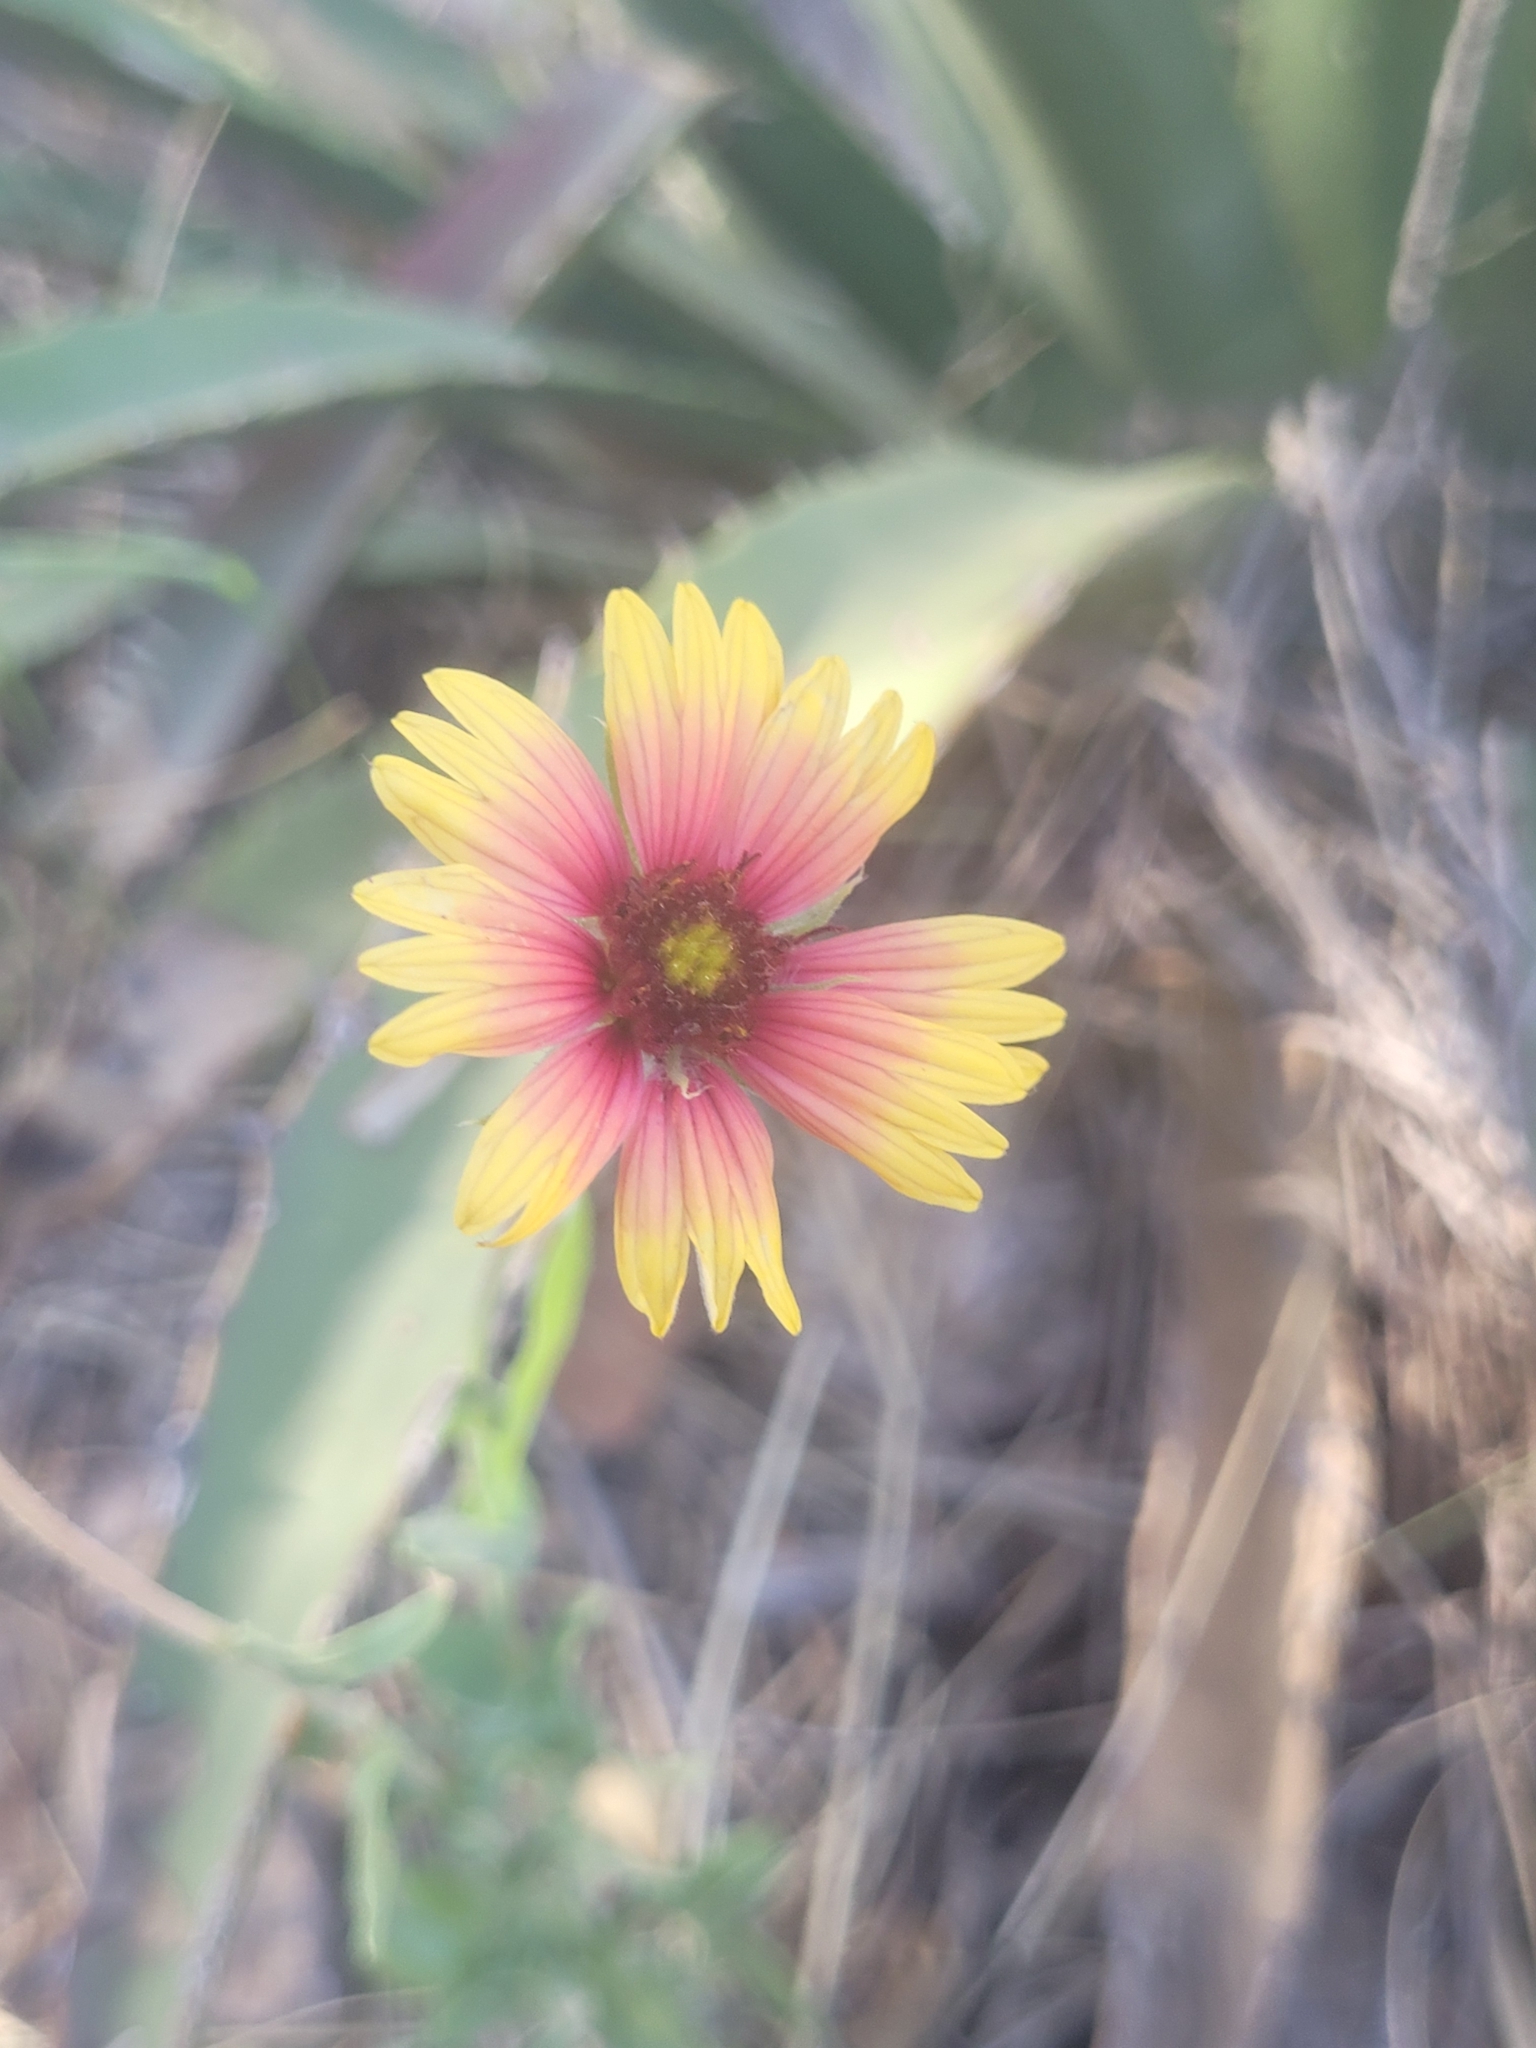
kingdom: Plantae
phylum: Tracheophyta
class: Magnoliopsida
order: Asterales
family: Asteraceae
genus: Gaillardia
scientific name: Gaillardia pulchella
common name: Firewheel
